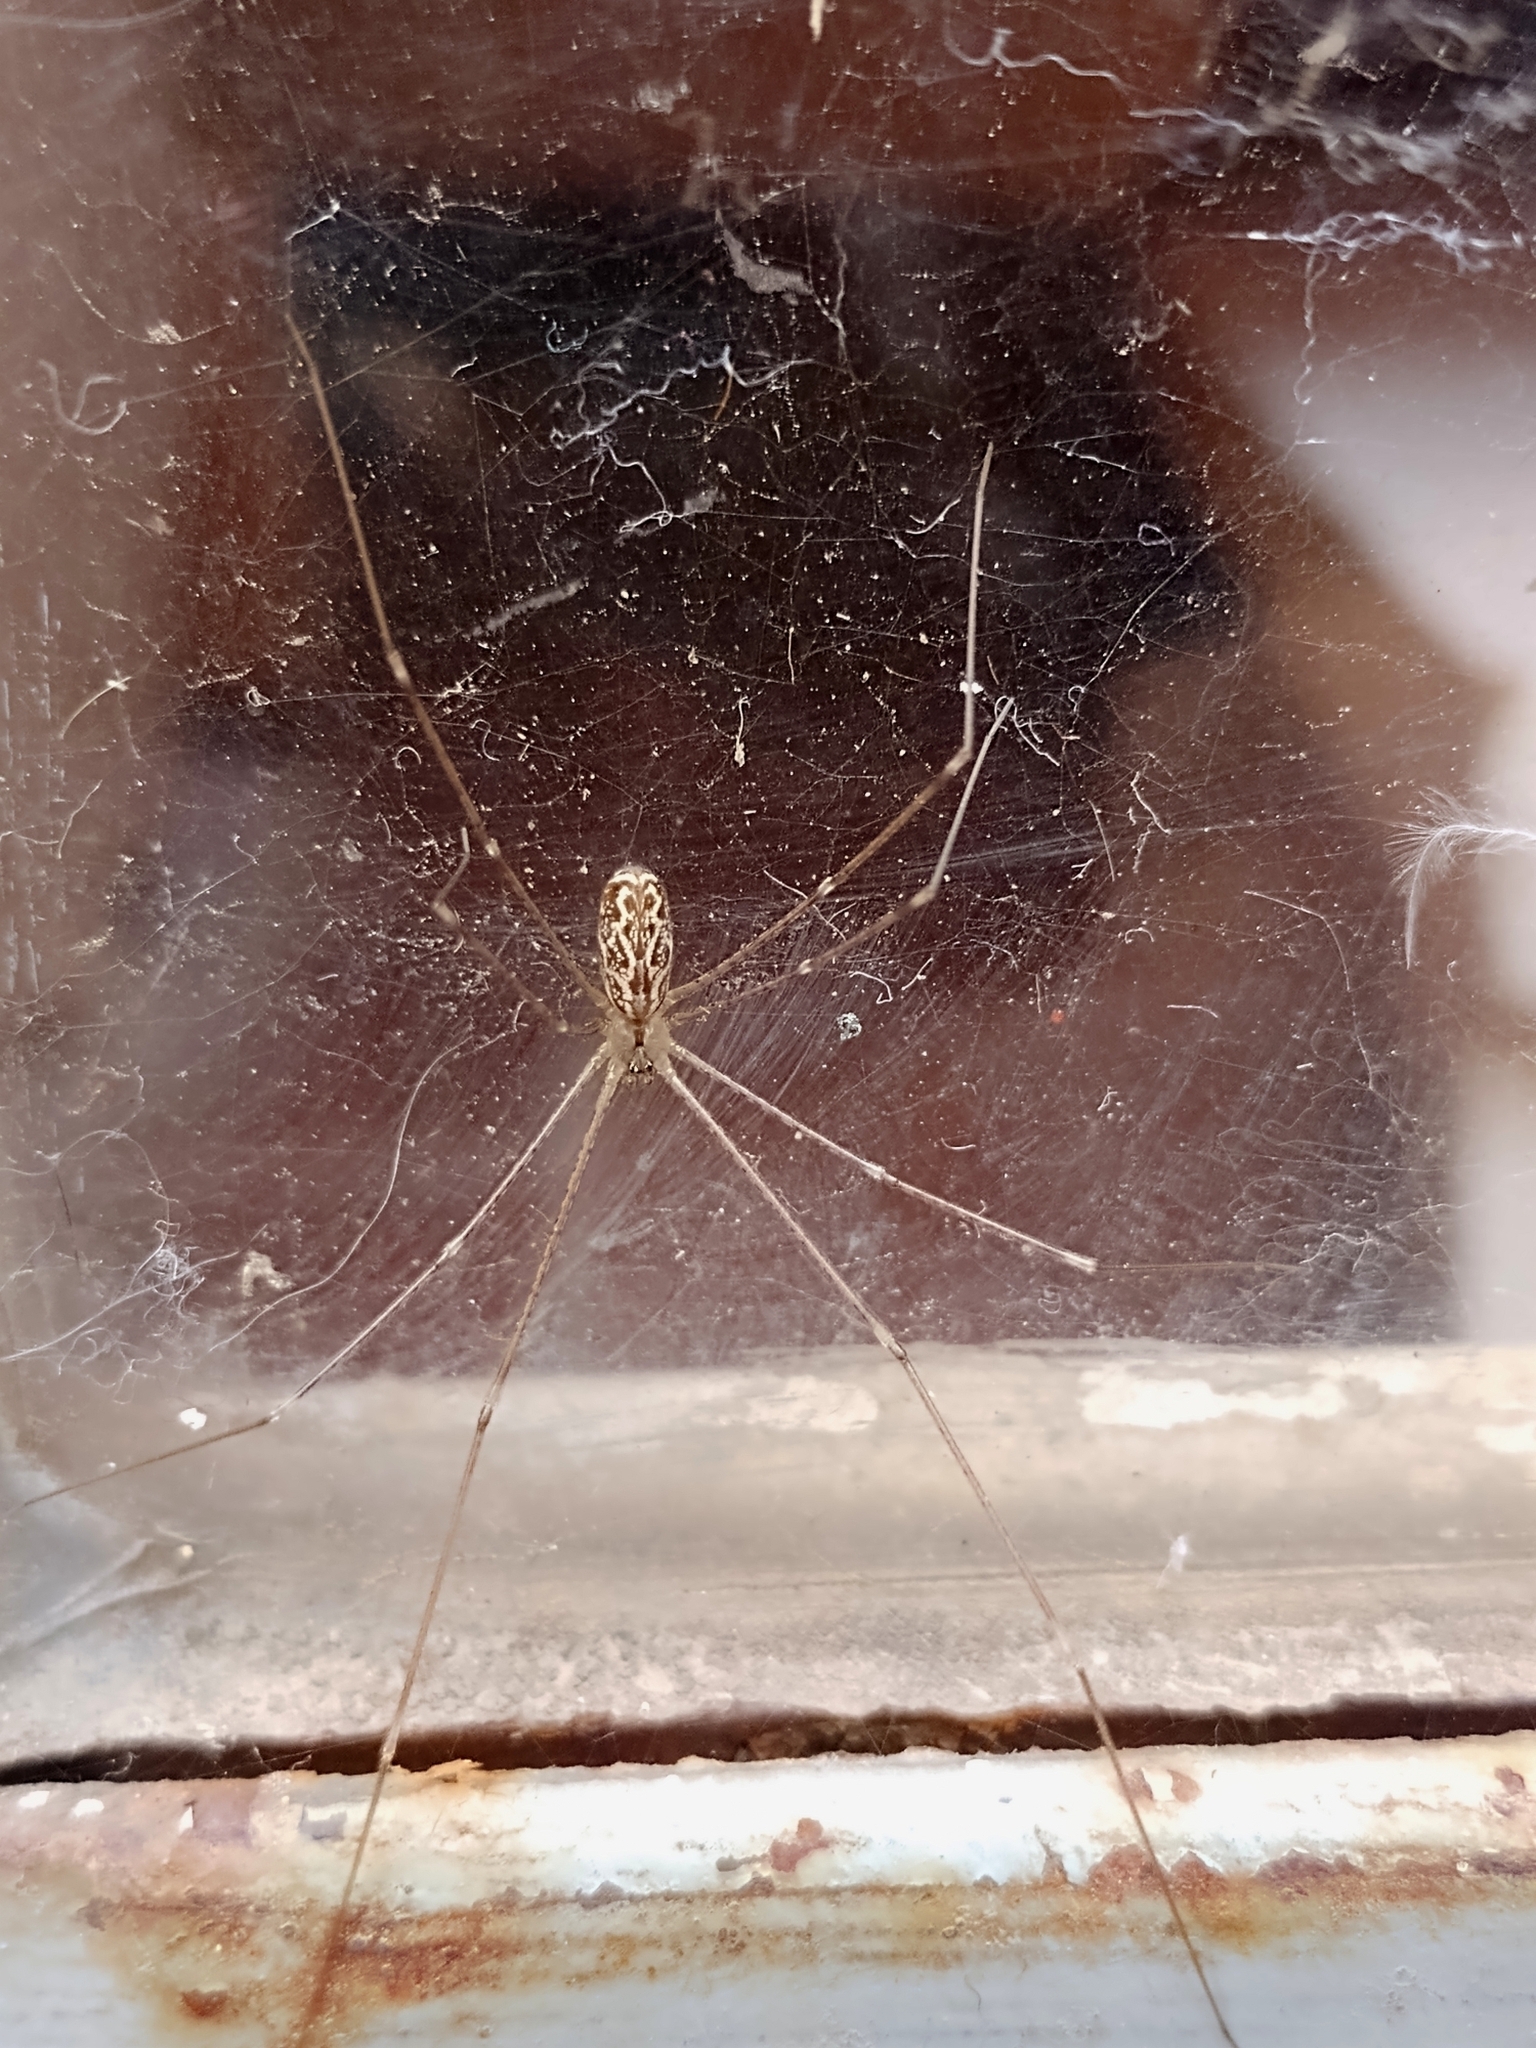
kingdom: Animalia
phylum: Arthropoda
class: Arachnida
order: Araneae
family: Pholcidae
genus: Holocnemus
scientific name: Holocnemus pluchei
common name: Marbled cellar spider
